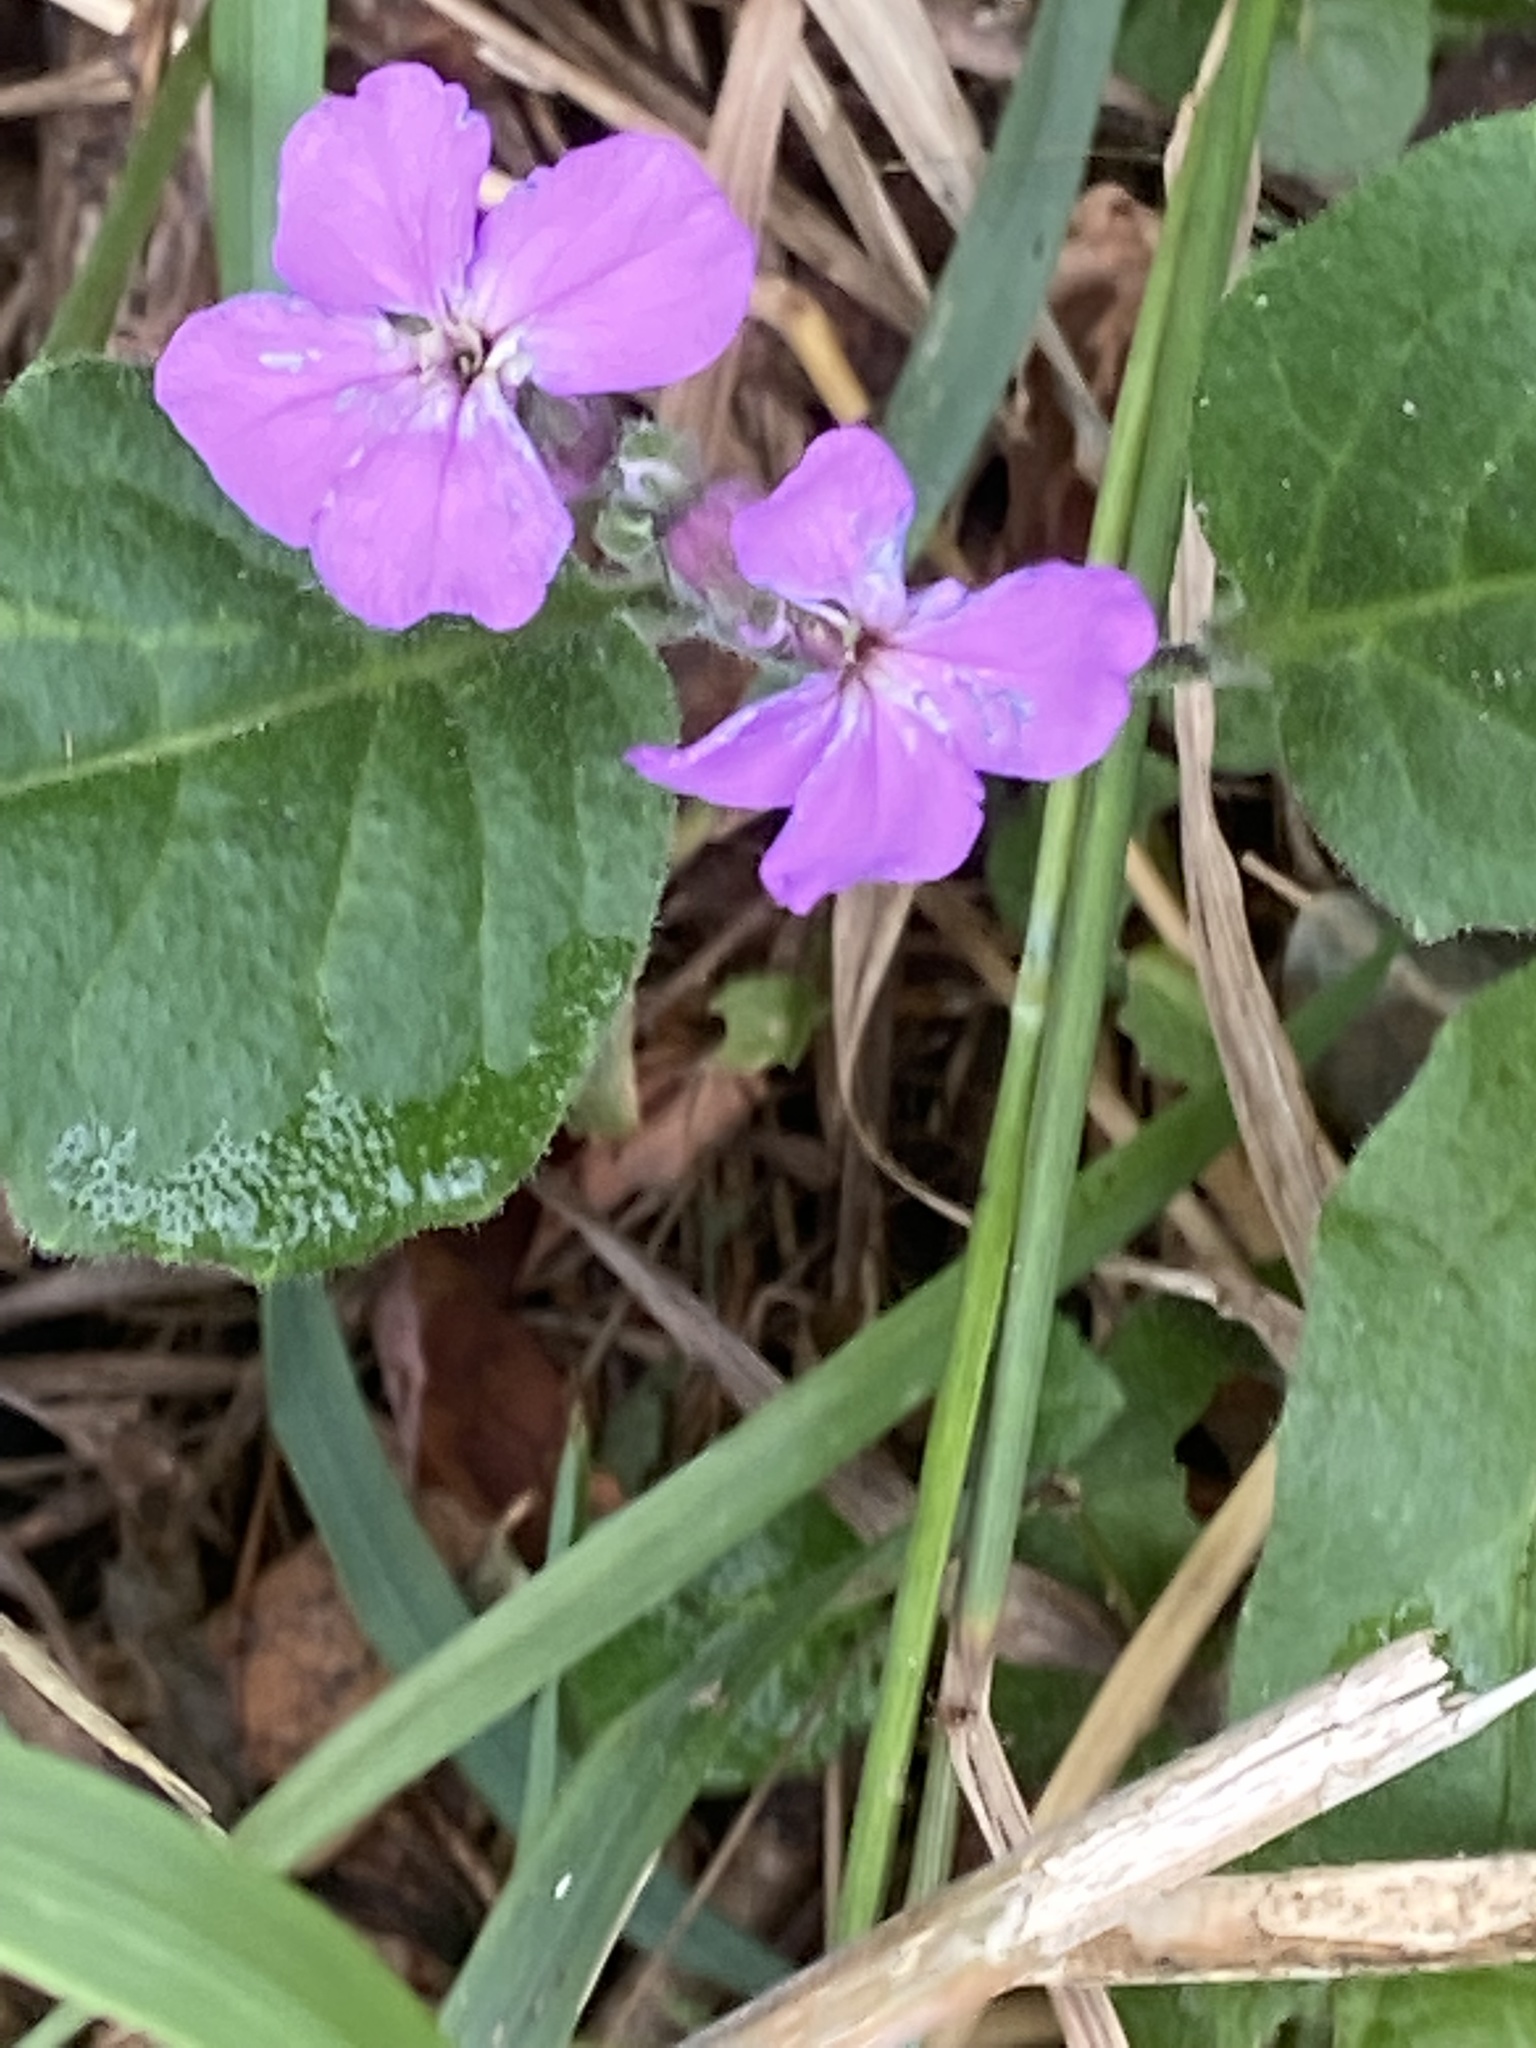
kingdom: Plantae
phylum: Tracheophyta
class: Magnoliopsida
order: Brassicales
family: Brassicaceae
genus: Hesperis
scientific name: Hesperis matronalis
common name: Dame's-violet
